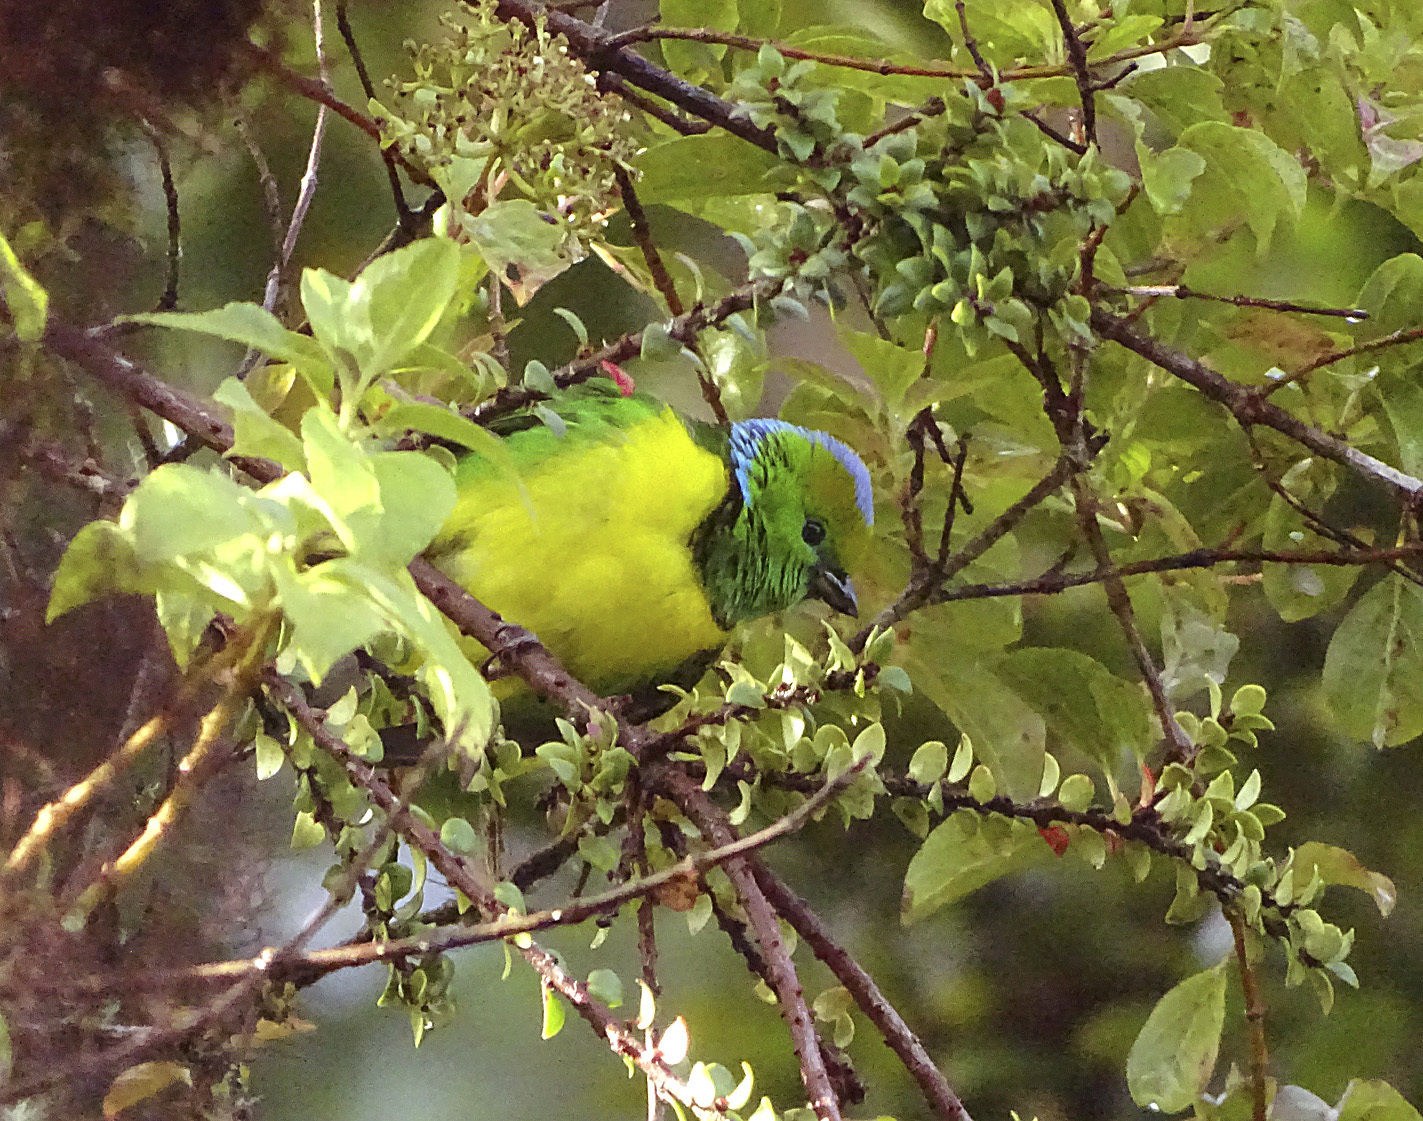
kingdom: Animalia
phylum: Chordata
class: Aves
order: Passeriformes
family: Fringillidae
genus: Chlorophonia
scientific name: Chlorophonia callophrys
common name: Golden-browed chlorophonia
